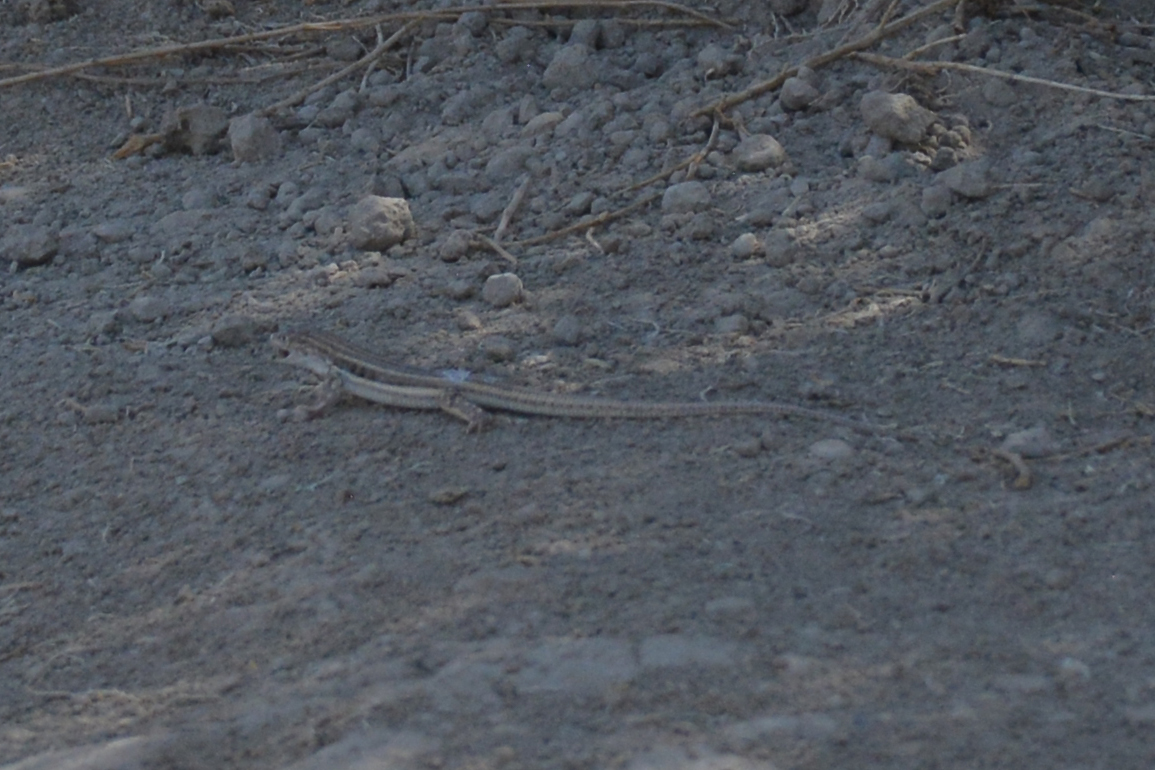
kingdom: Animalia
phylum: Chordata
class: Squamata
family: Lacertidae
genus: Eremias
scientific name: Eremias velox
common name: Central asian racerunner
